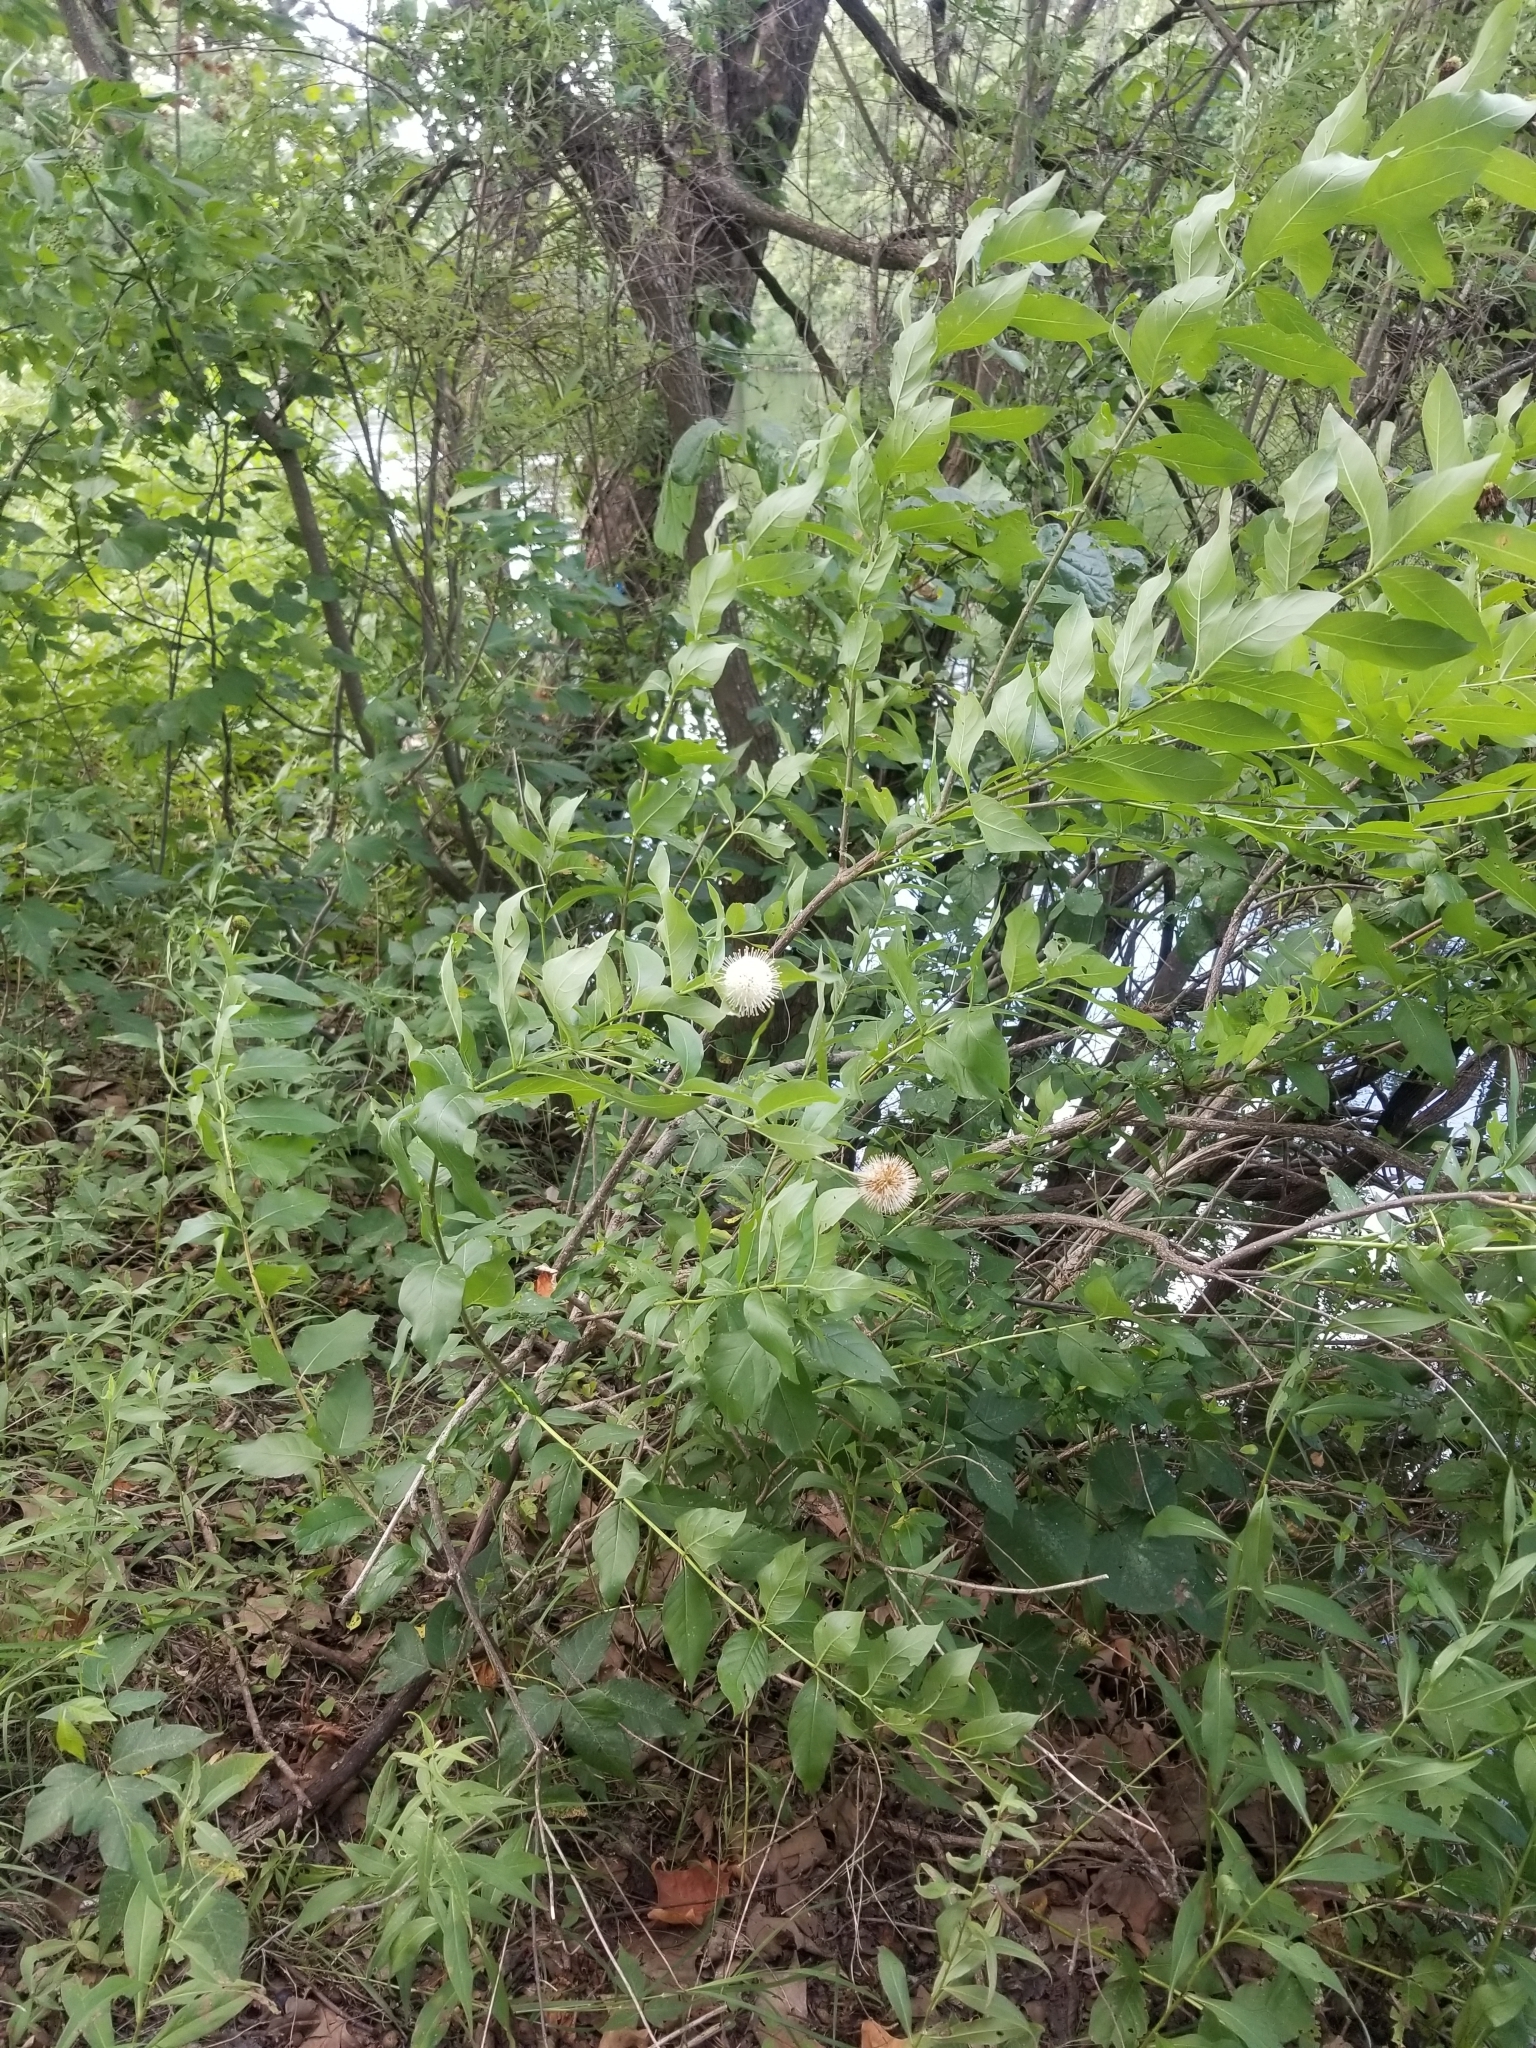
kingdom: Plantae
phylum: Tracheophyta
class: Magnoliopsida
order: Gentianales
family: Rubiaceae
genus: Cephalanthus
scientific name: Cephalanthus occidentalis
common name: Button-willow
